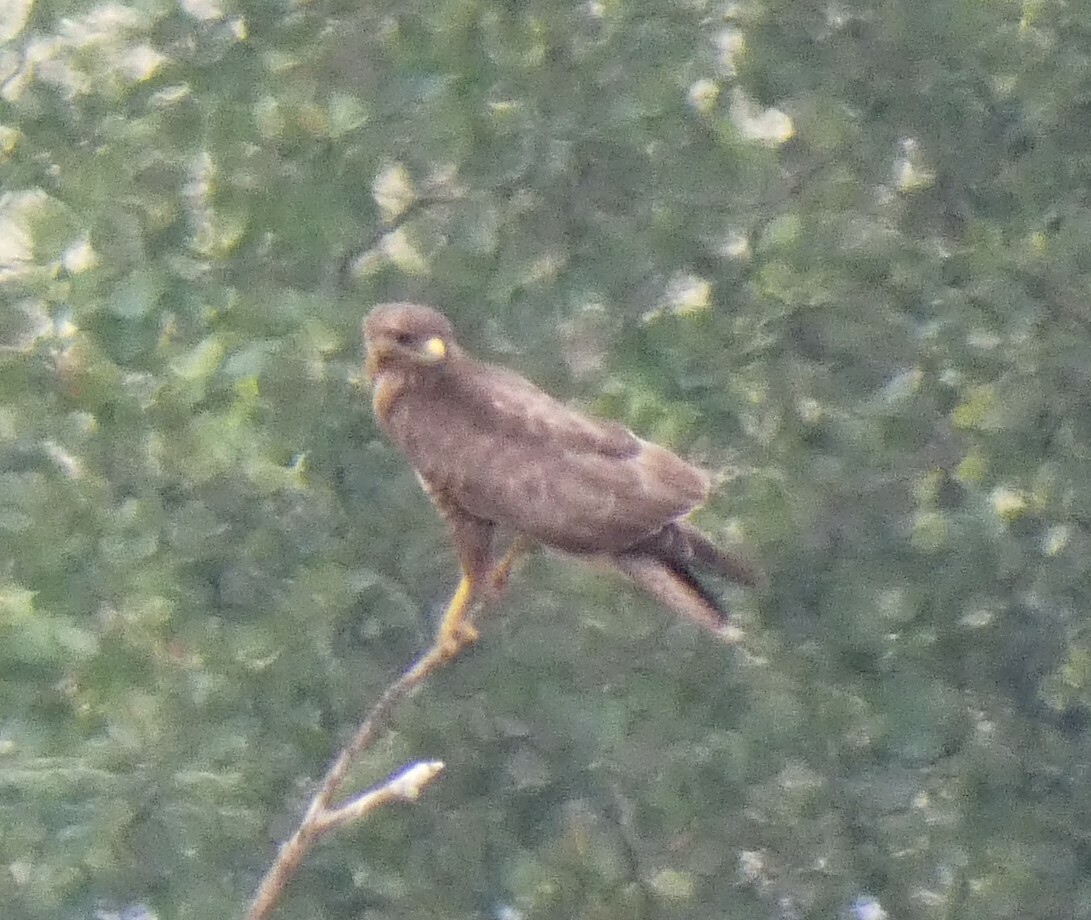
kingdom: Animalia
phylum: Chordata
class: Aves
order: Accipitriformes
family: Accipitridae
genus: Buteo
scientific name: Buteo buteo
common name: Common buzzard
